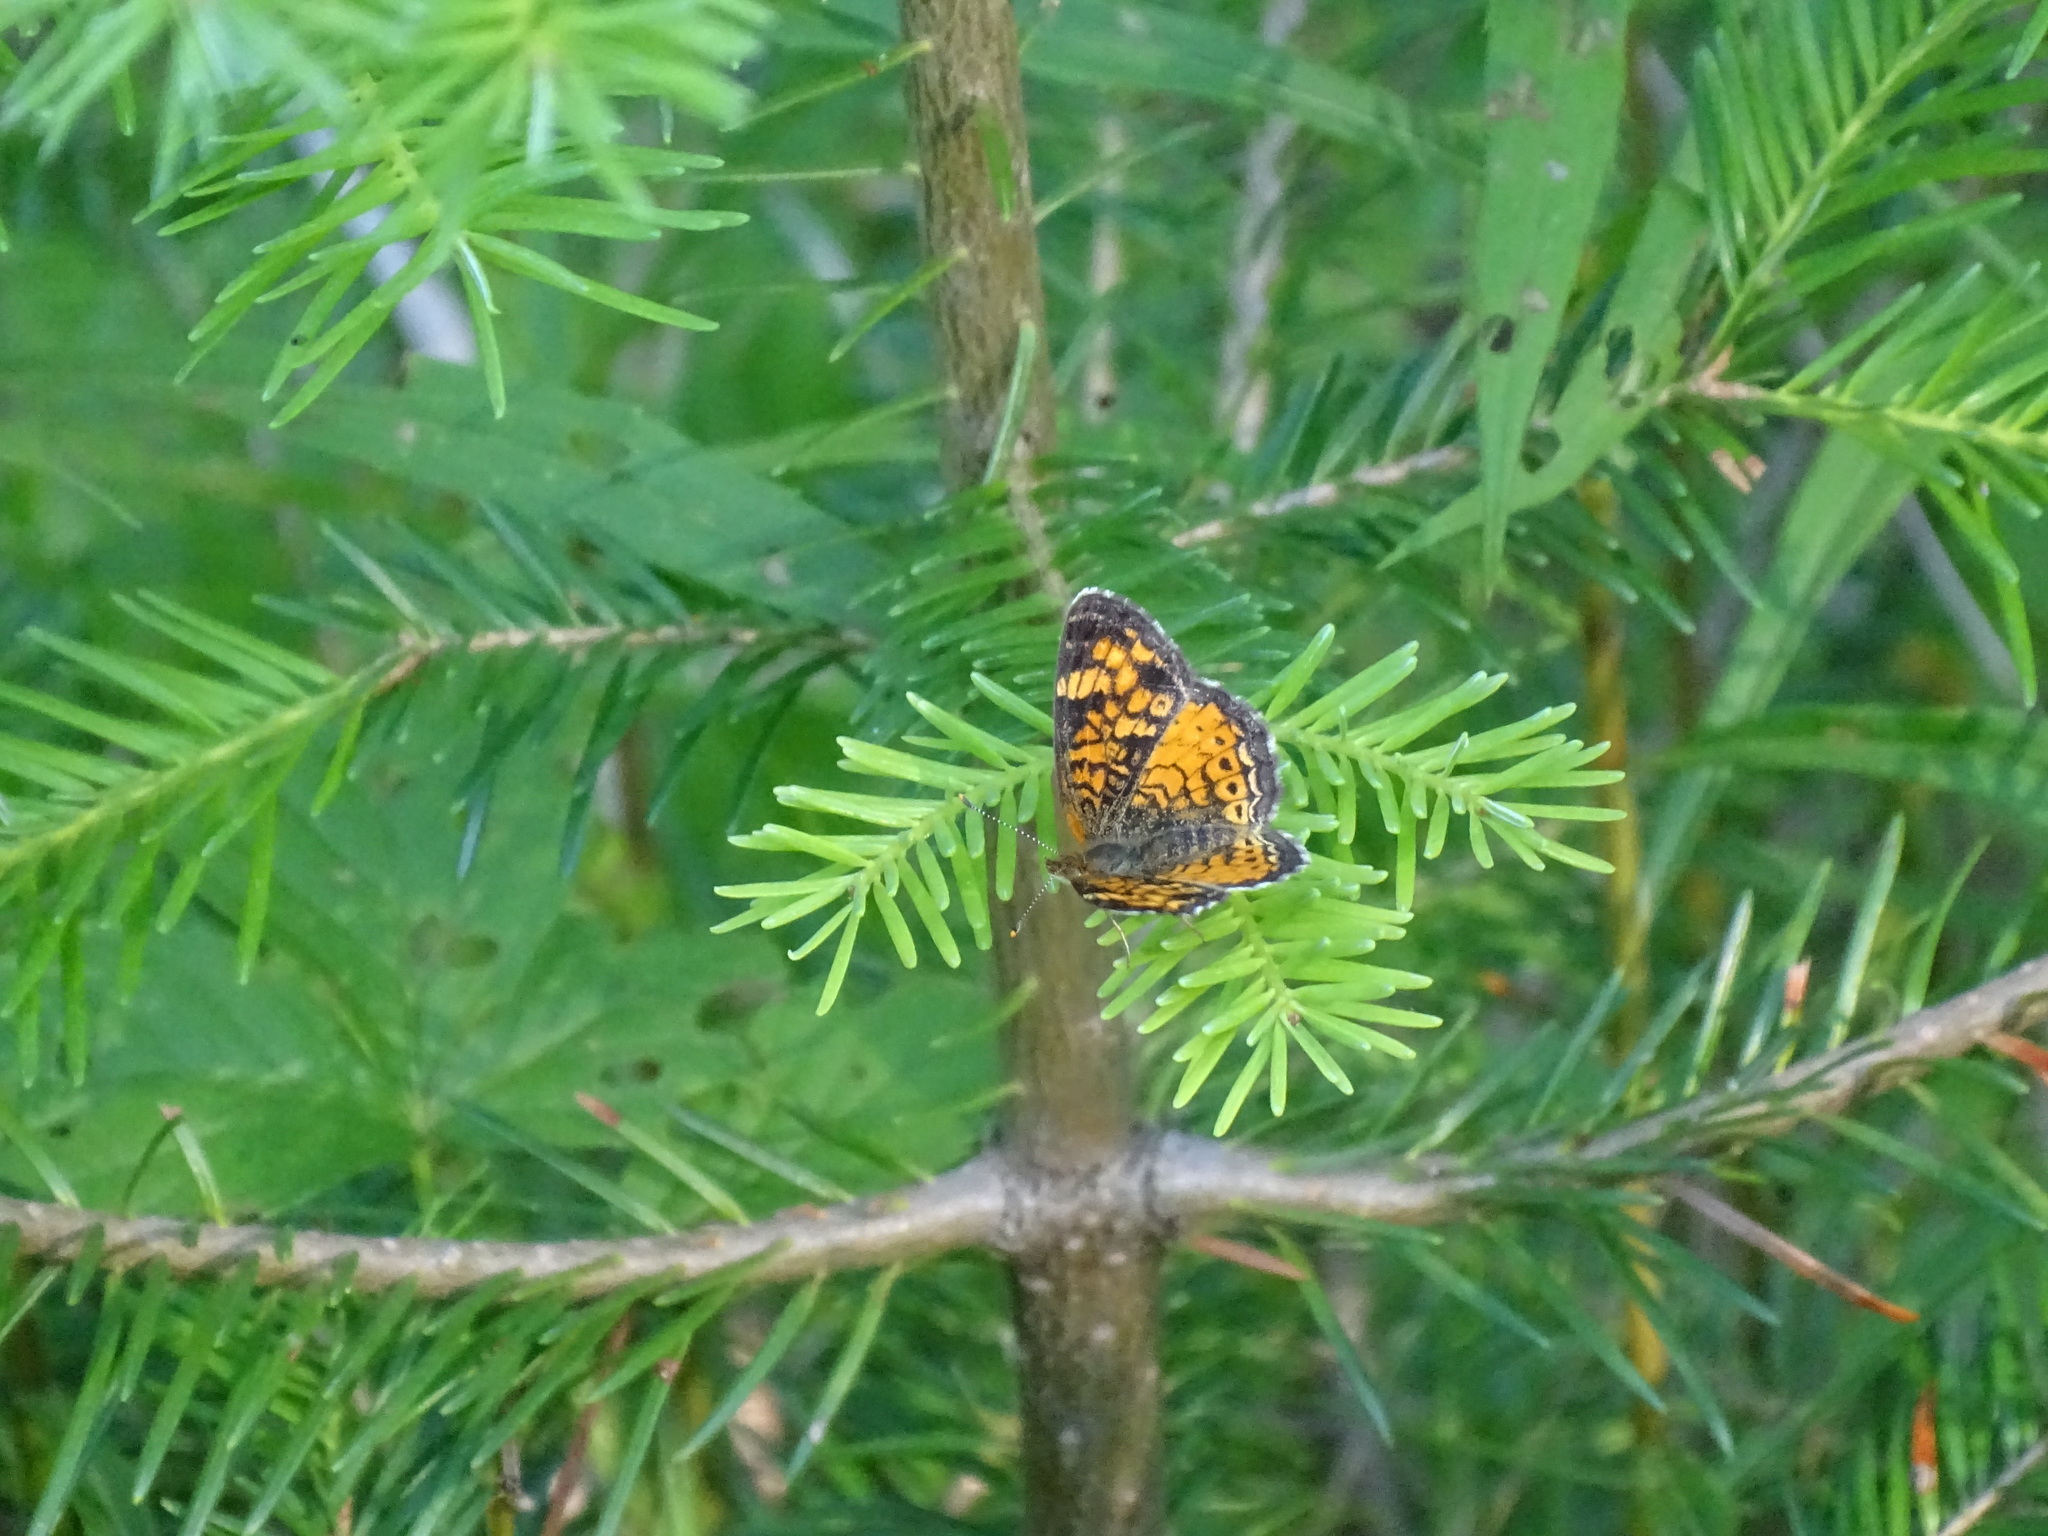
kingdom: Animalia
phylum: Arthropoda
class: Insecta
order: Lepidoptera
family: Nymphalidae
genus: Phyciodes
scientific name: Phyciodes tharos
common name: Pearl crescent
